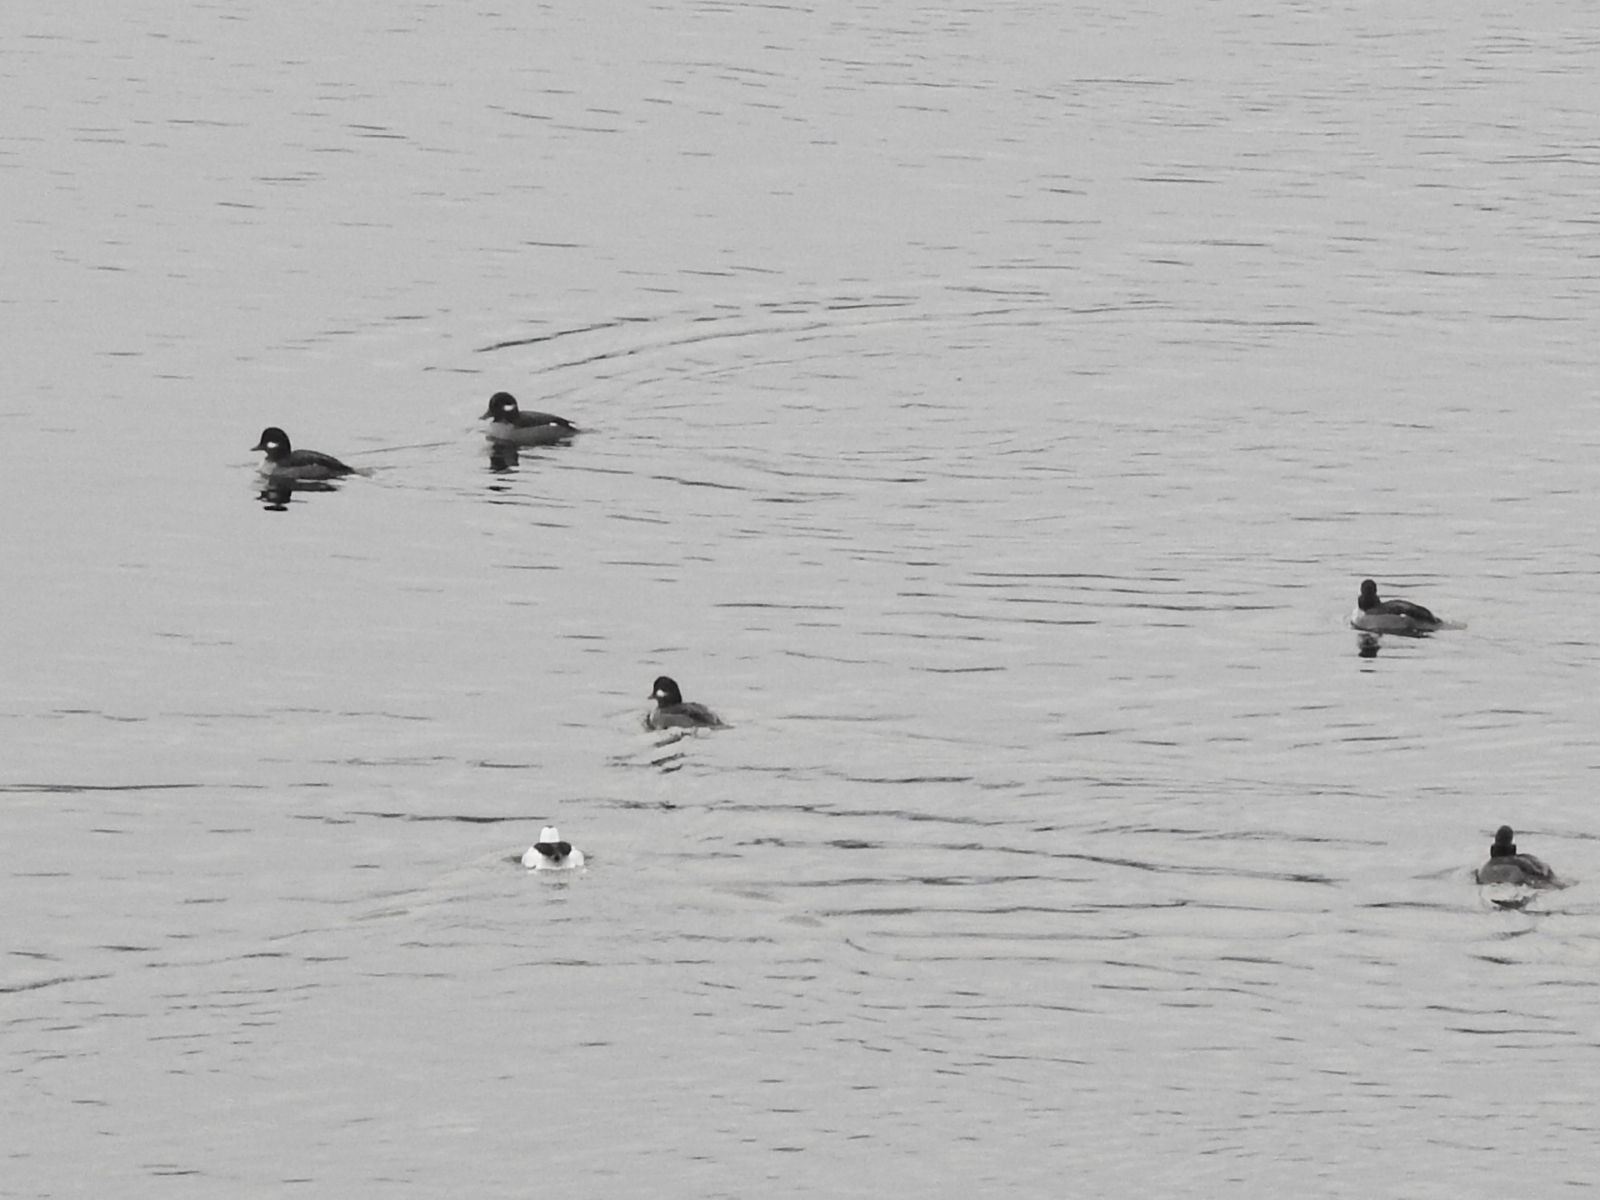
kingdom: Animalia
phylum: Chordata
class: Aves
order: Anseriformes
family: Anatidae
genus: Bucephala
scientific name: Bucephala albeola
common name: Bufflehead
